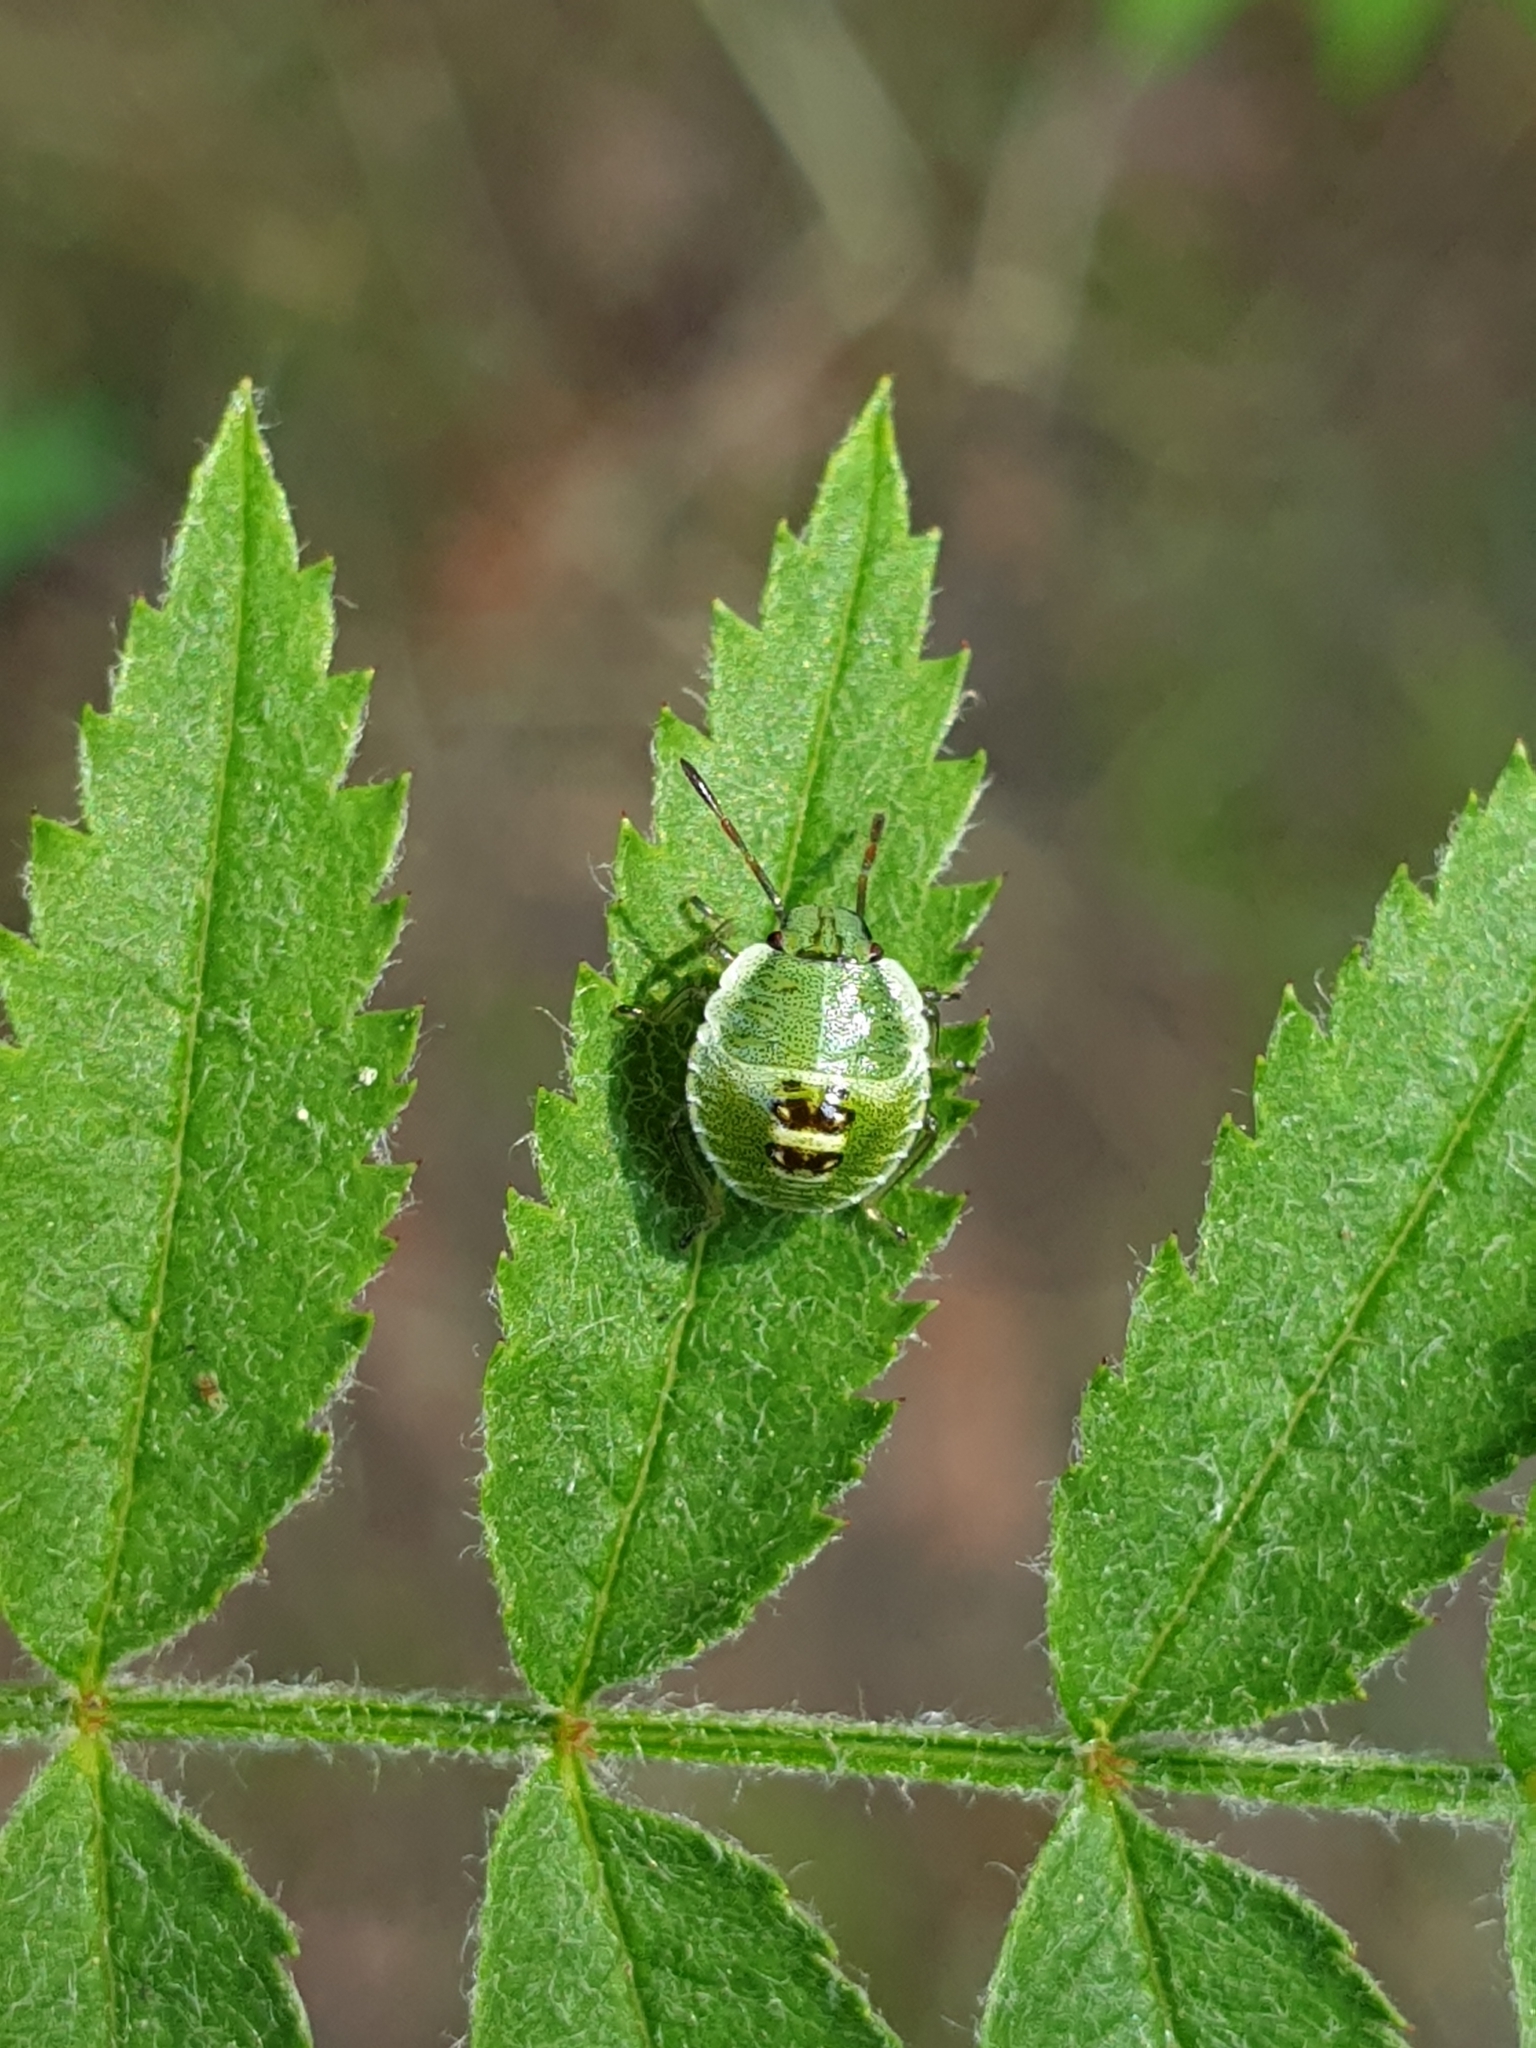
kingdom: Animalia
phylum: Arthropoda
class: Insecta
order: Hemiptera
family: Pentatomidae
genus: Palomena
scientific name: Palomena prasina
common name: Green shieldbug
